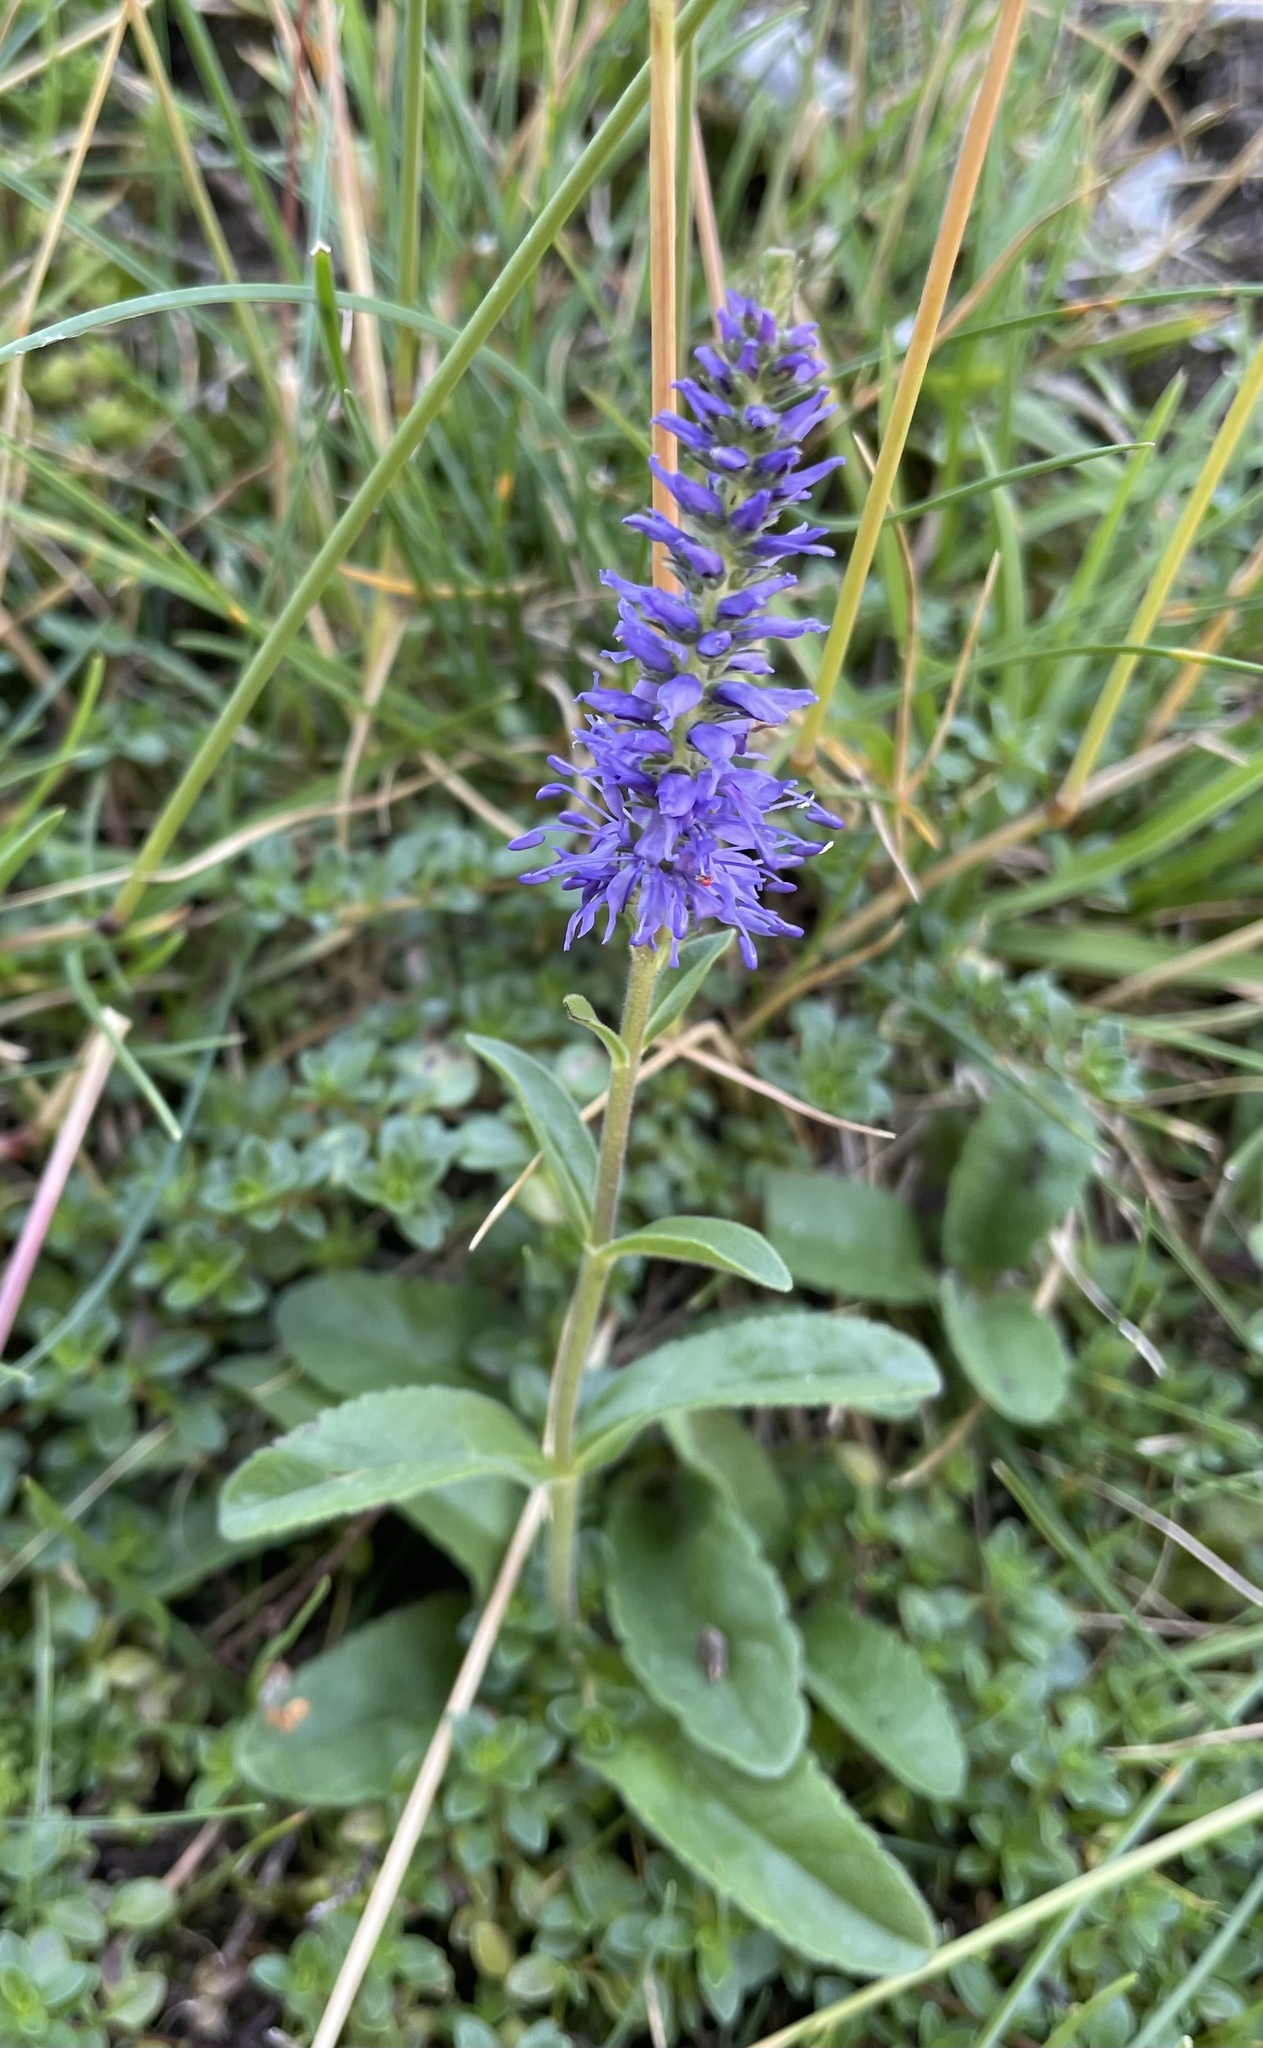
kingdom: Plantae
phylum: Tracheophyta
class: Magnoliopsida
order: Lamiales
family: Plantaginaceae
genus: Veronica
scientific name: Veronica spicata
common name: Spiked speedwell
